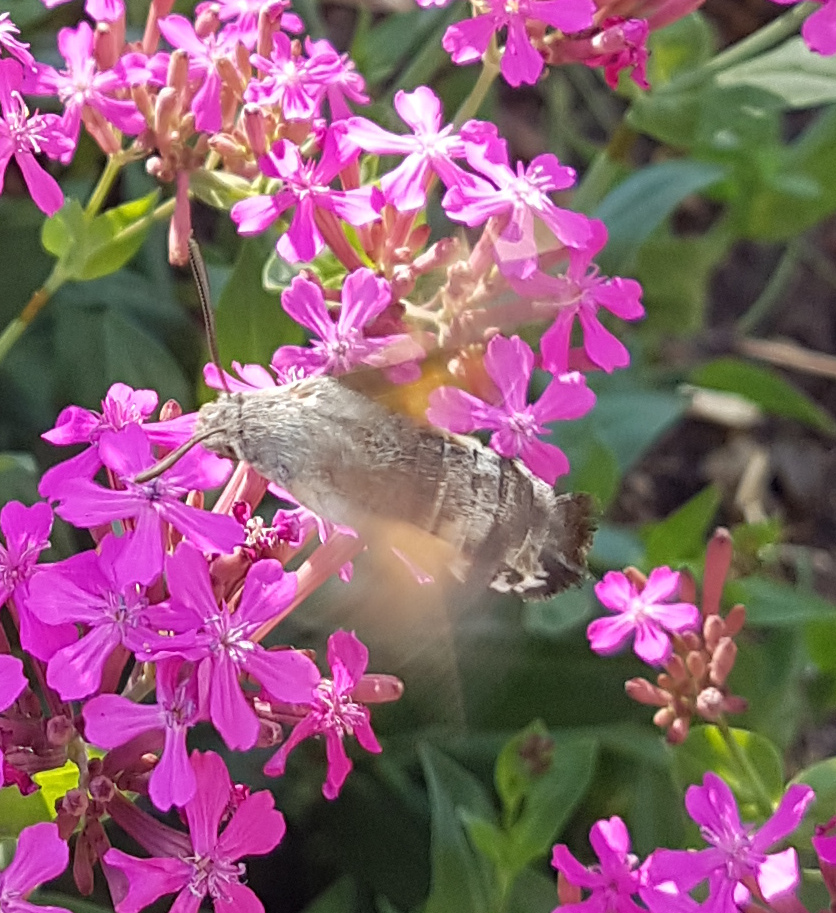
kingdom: Animalia
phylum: Arthropoda
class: Insecta
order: Lepidoptera
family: Sphingidae
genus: Macroglossum
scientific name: Macroglossum stellatarum
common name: Humming-bird hawk-moth
